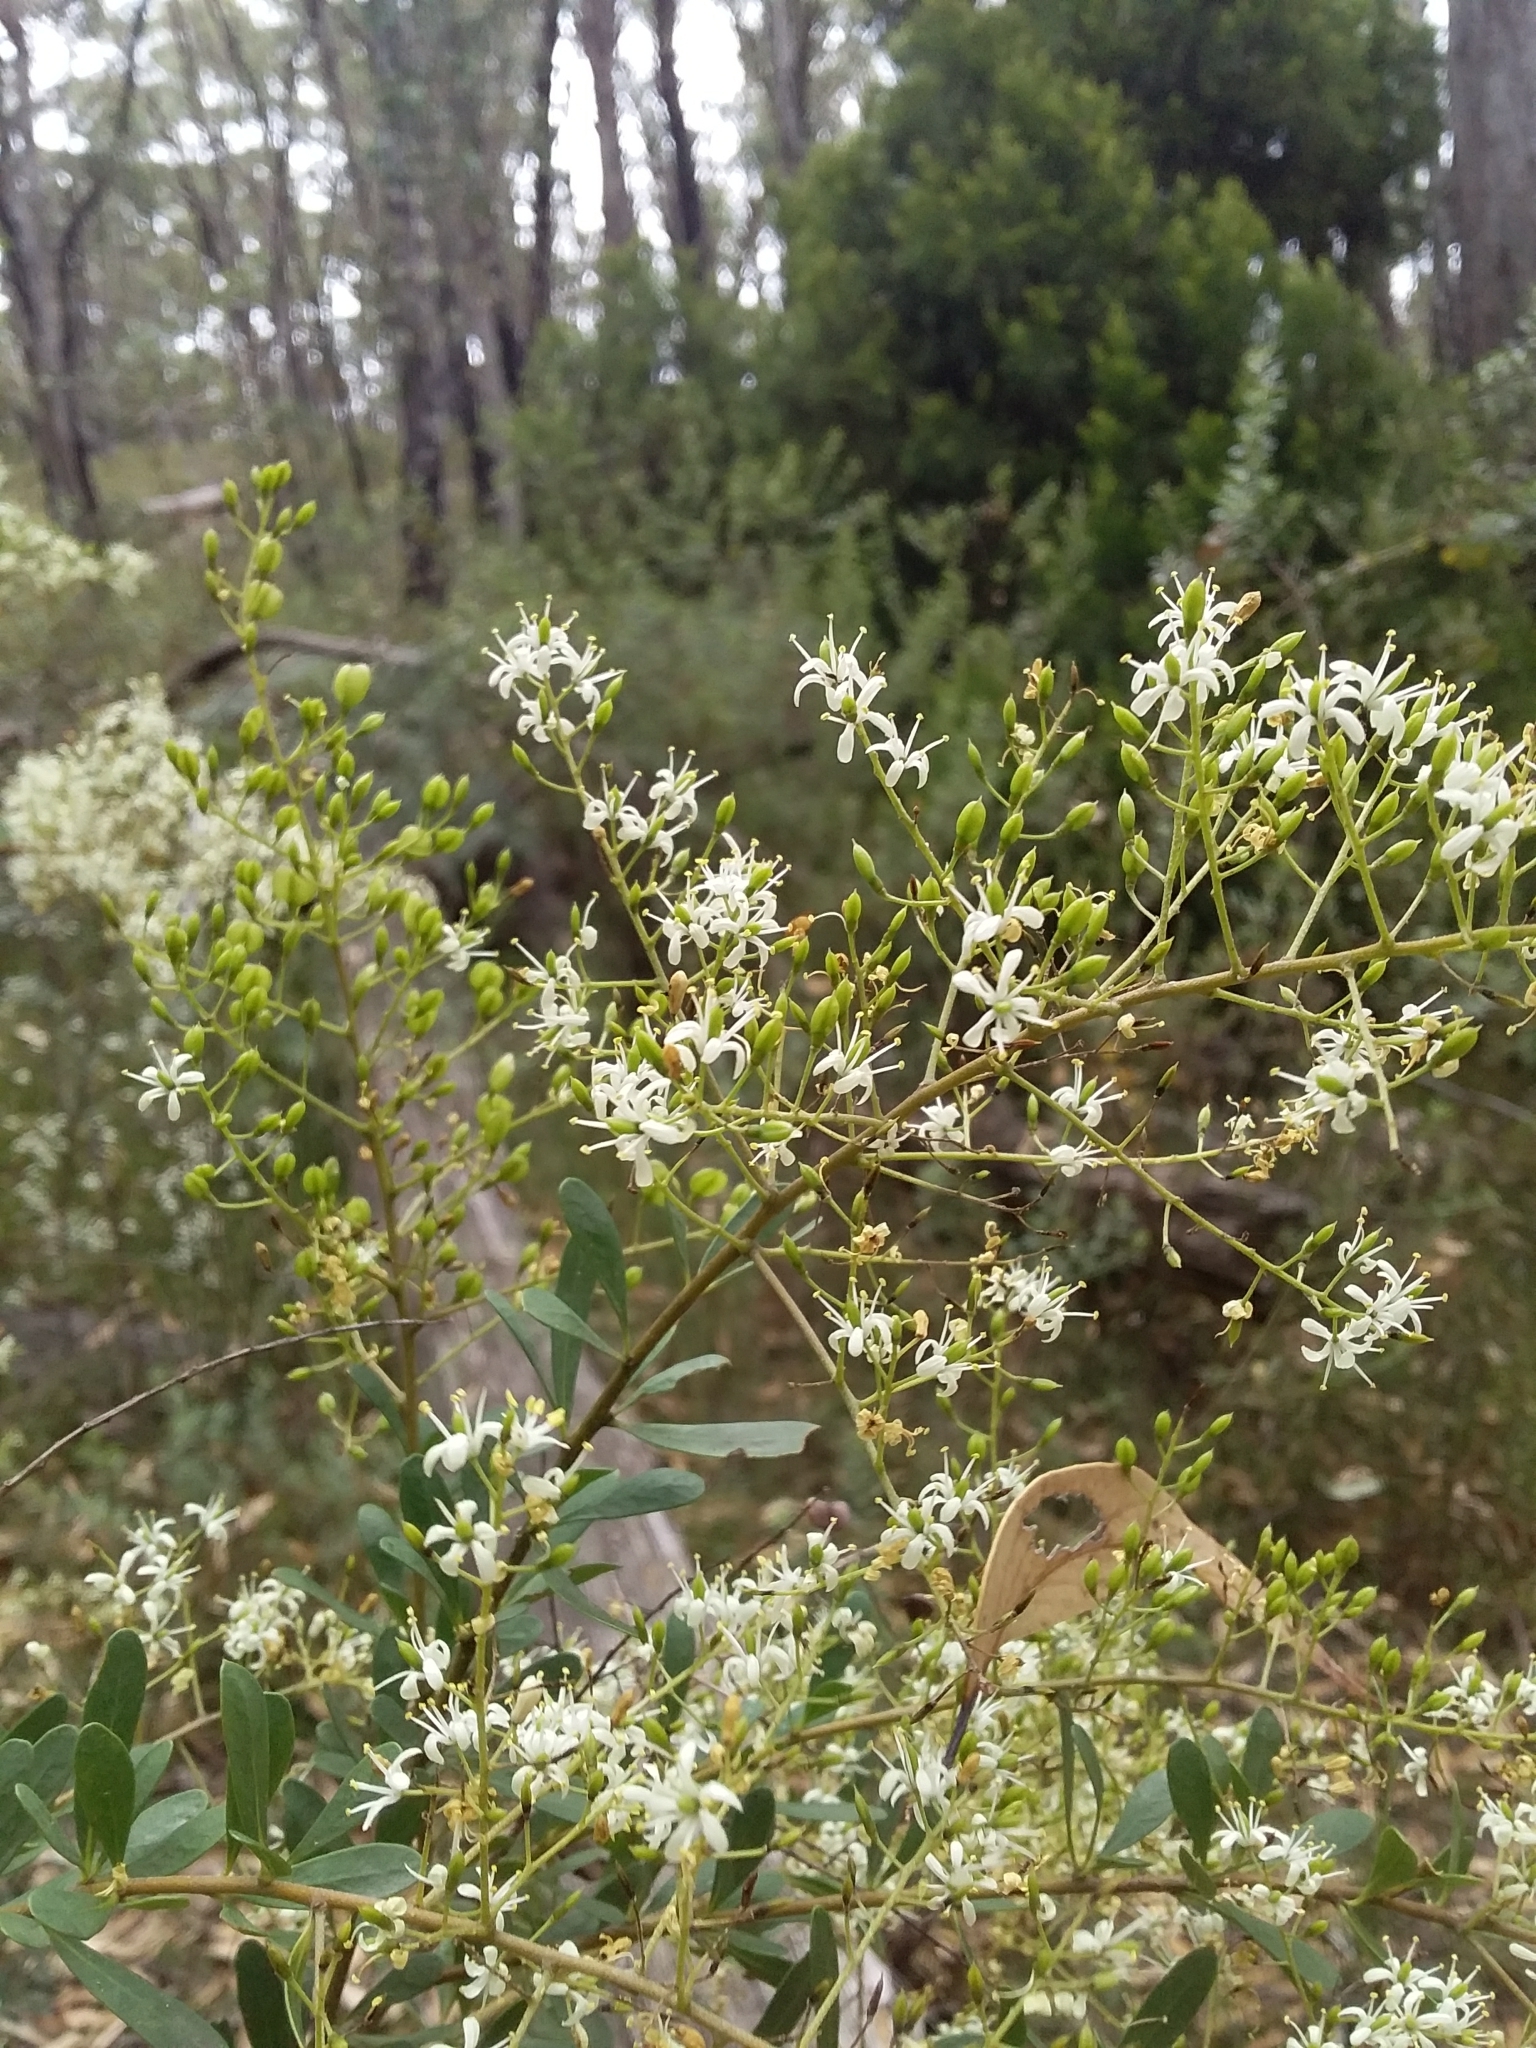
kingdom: Plantae
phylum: Tracheophyta
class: Magnoliopsida
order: Apiales
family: Pittosporaceae
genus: Bursaria
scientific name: Bursaria spinosa
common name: Australian blackthorn
